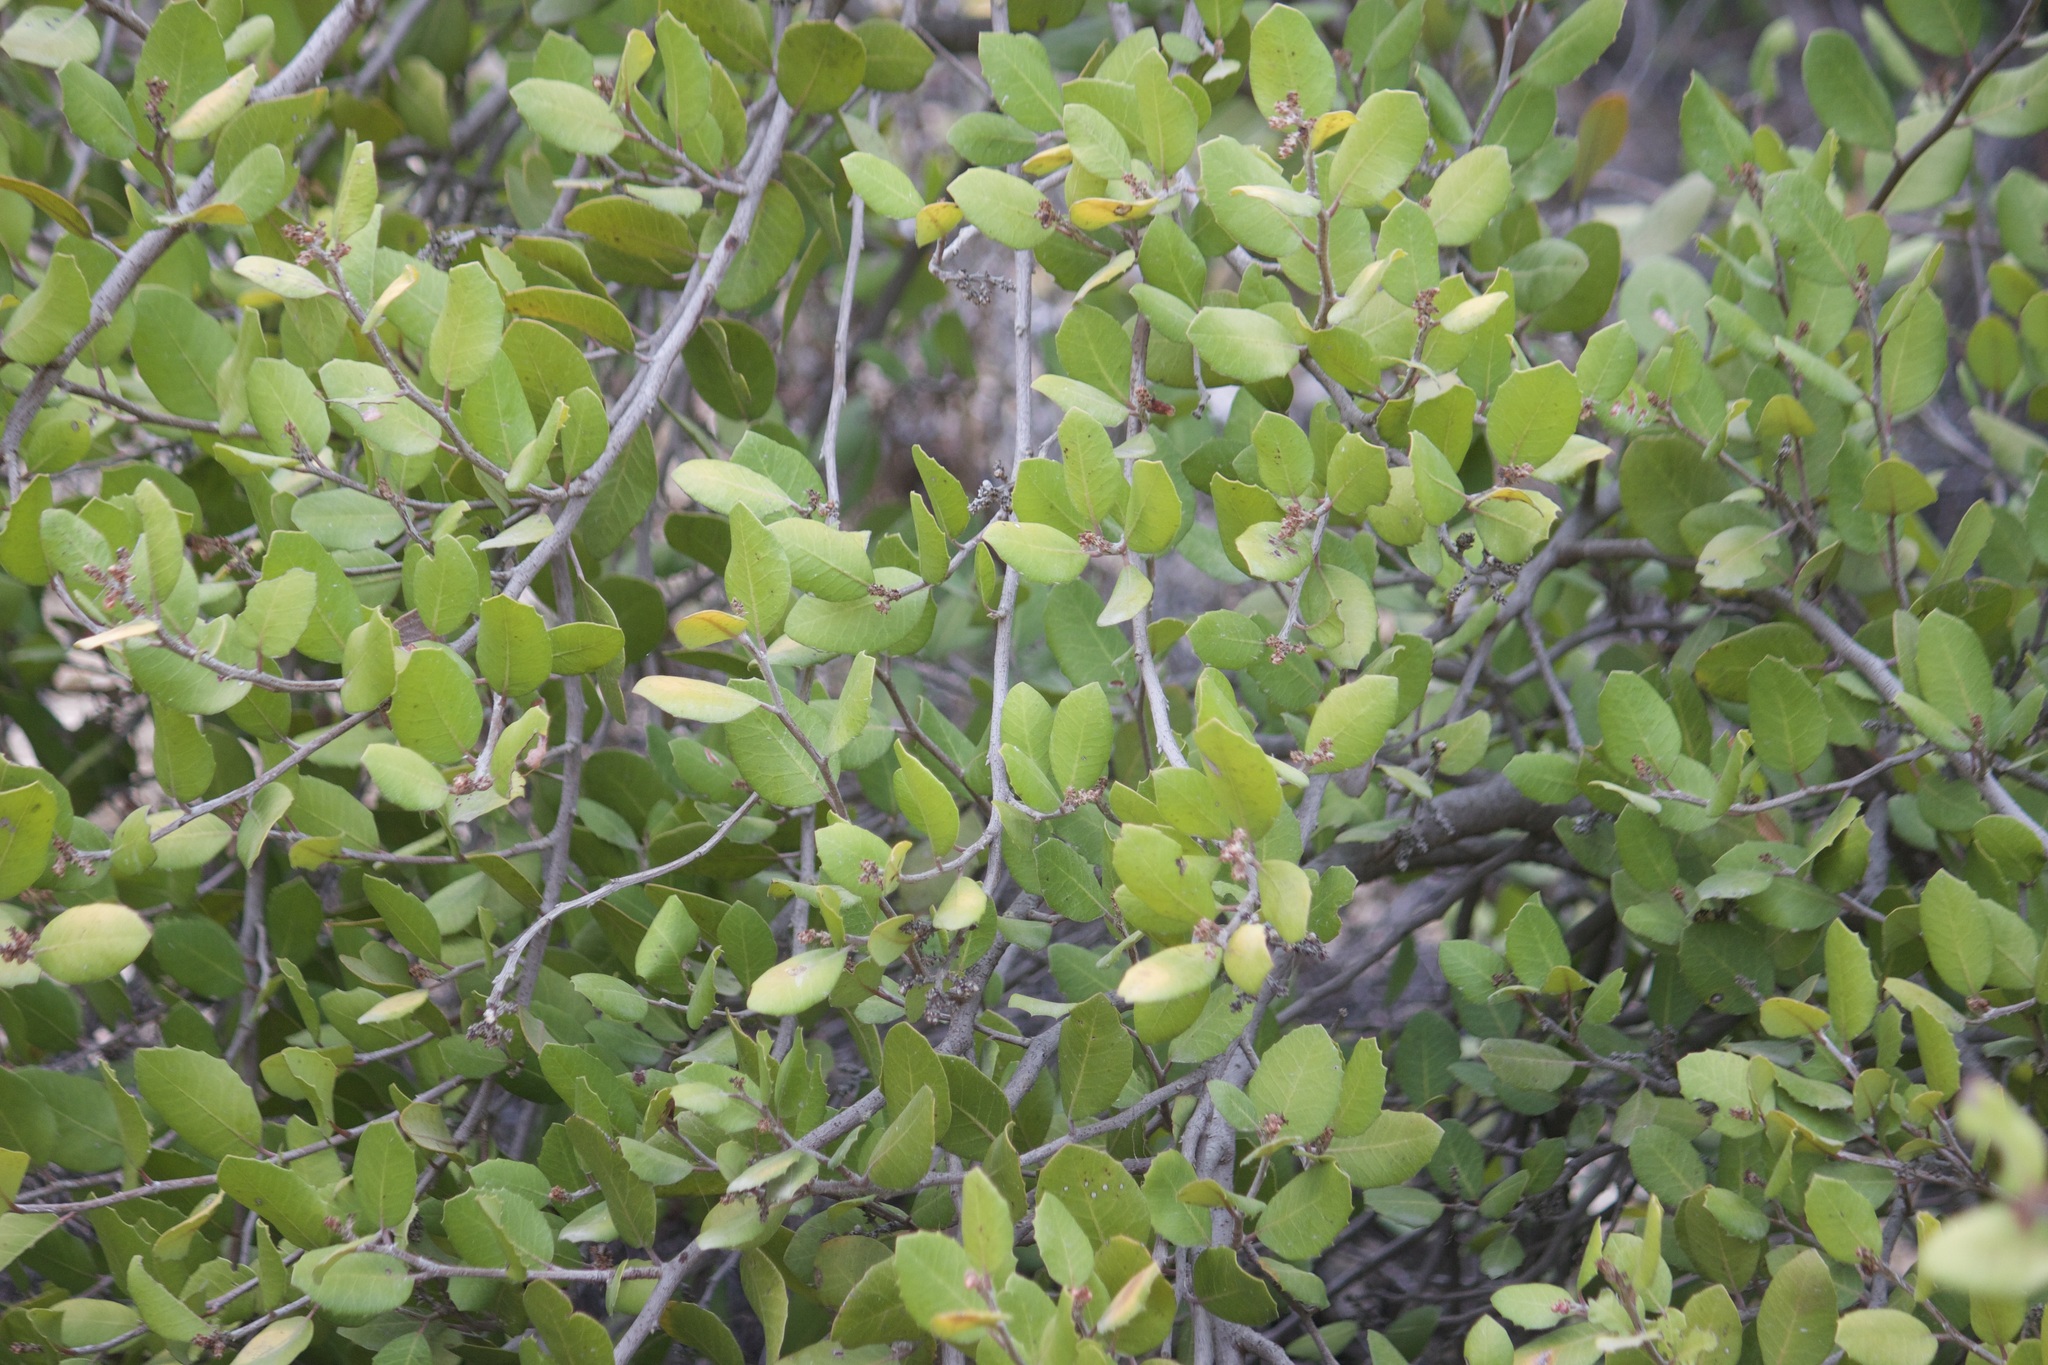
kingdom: Plantae
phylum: Tracheophyta
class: Magnoliopsida
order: Sapindales
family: Anacardiaceae
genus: Rhus
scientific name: Rhus integrifolia
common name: Lemonade sumac
